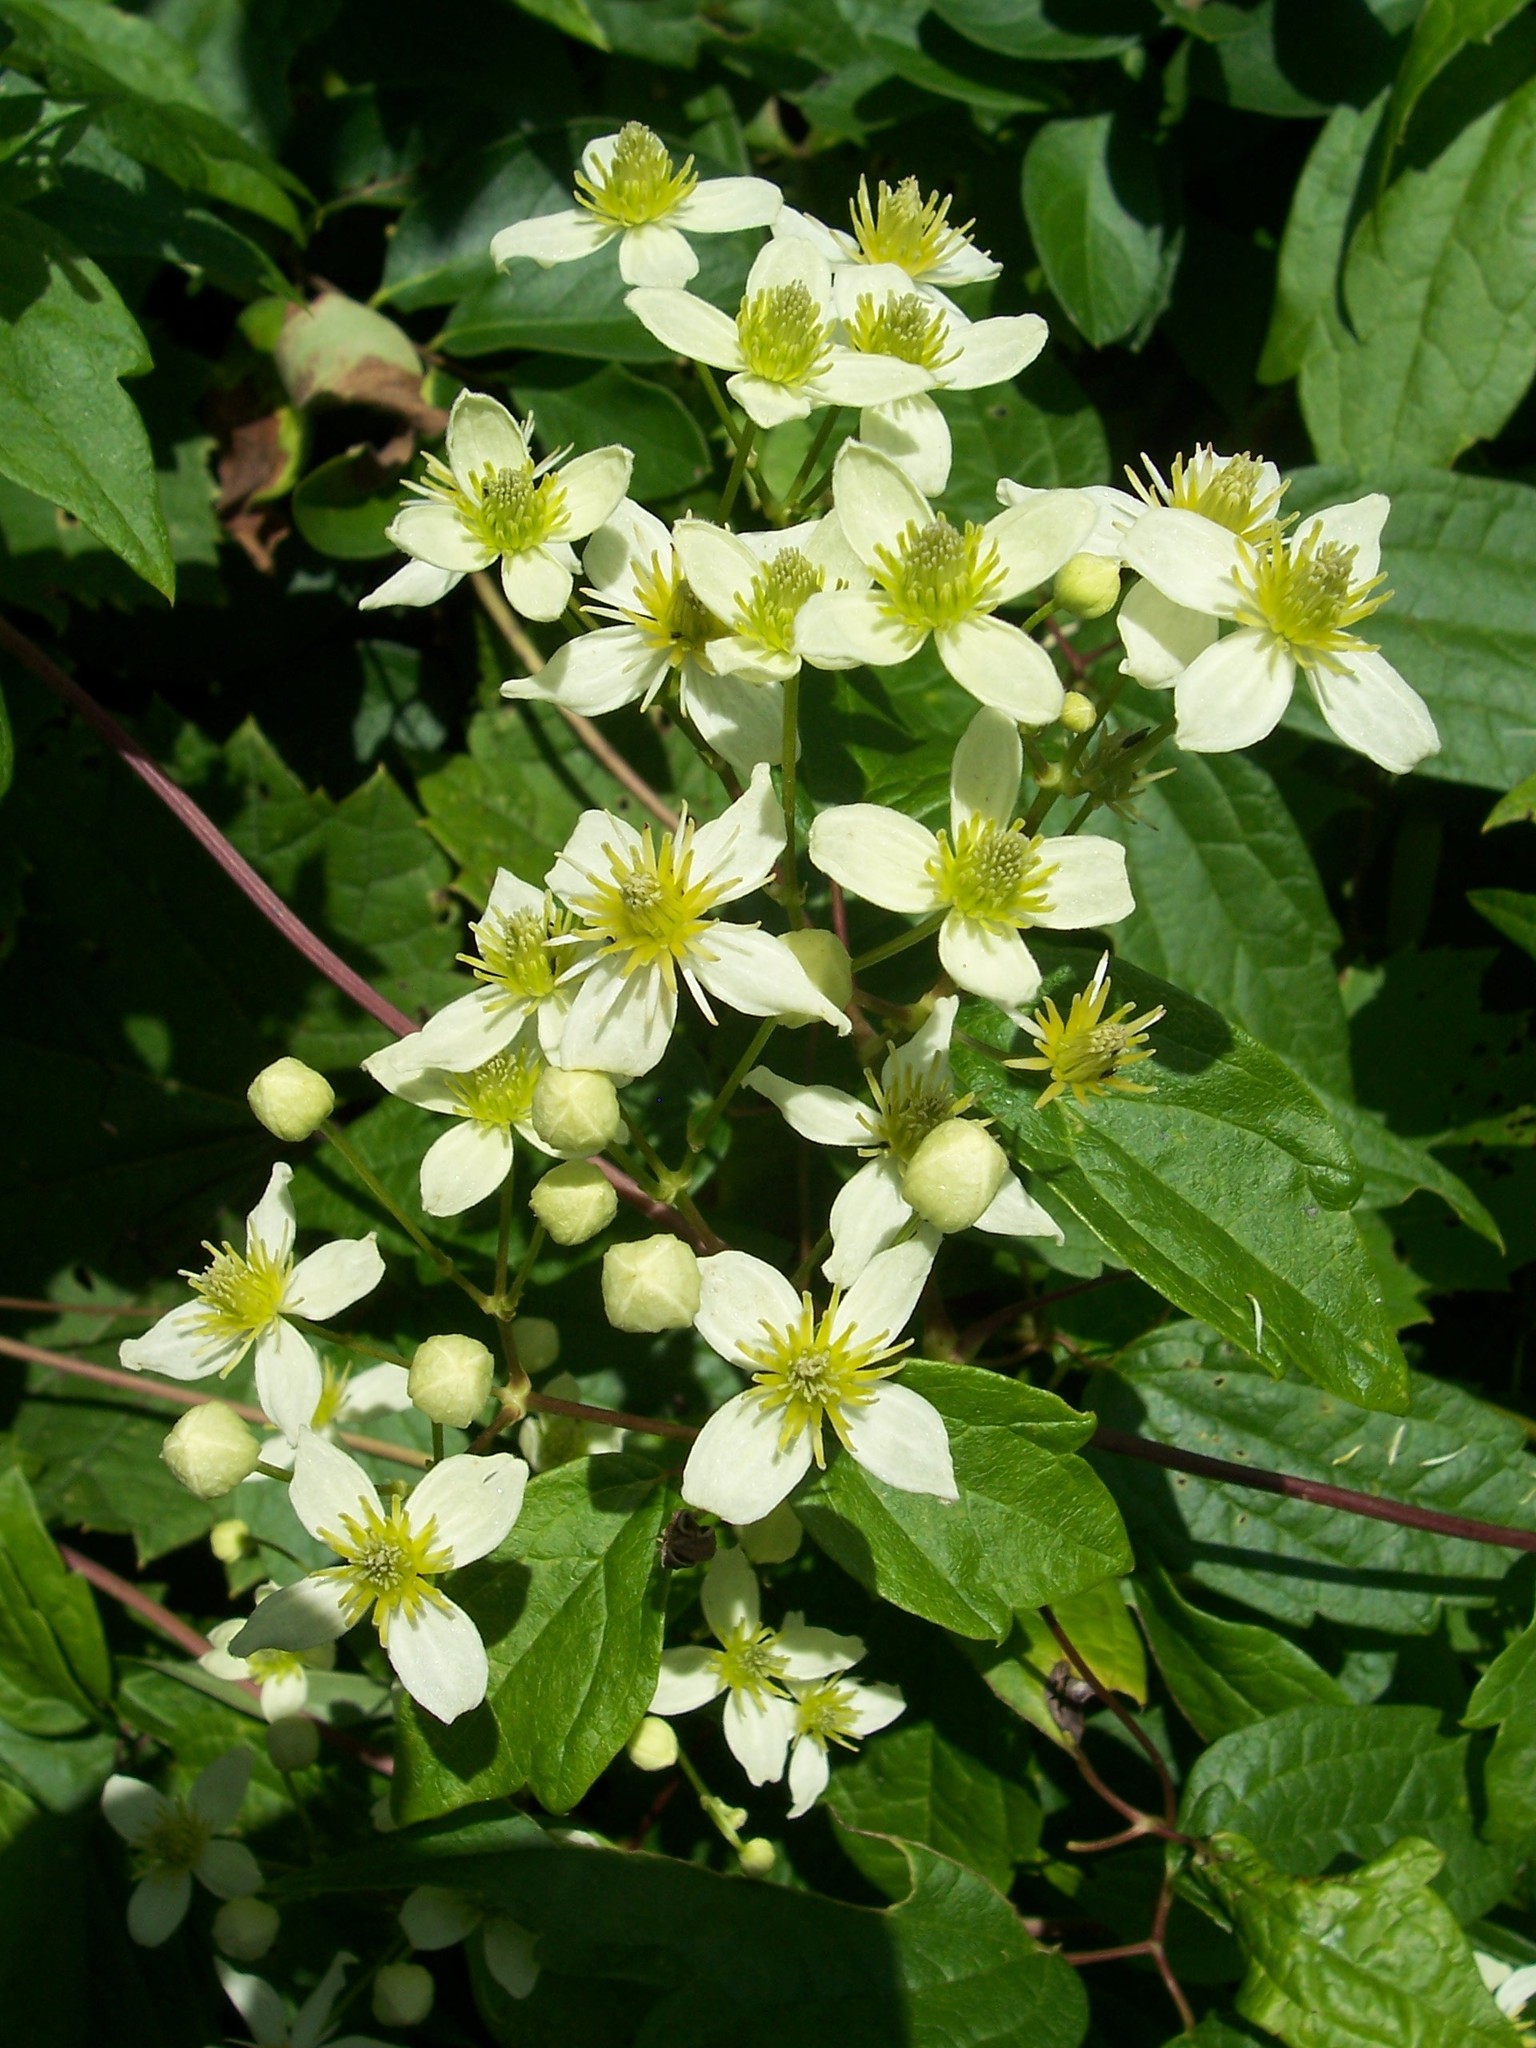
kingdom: Plantae
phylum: Tracheophyta
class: Magnoliopsida
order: Ranunculales
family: Ranunculaceae
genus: Clematis
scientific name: Clematis virginiana
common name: Virgin's-bower
